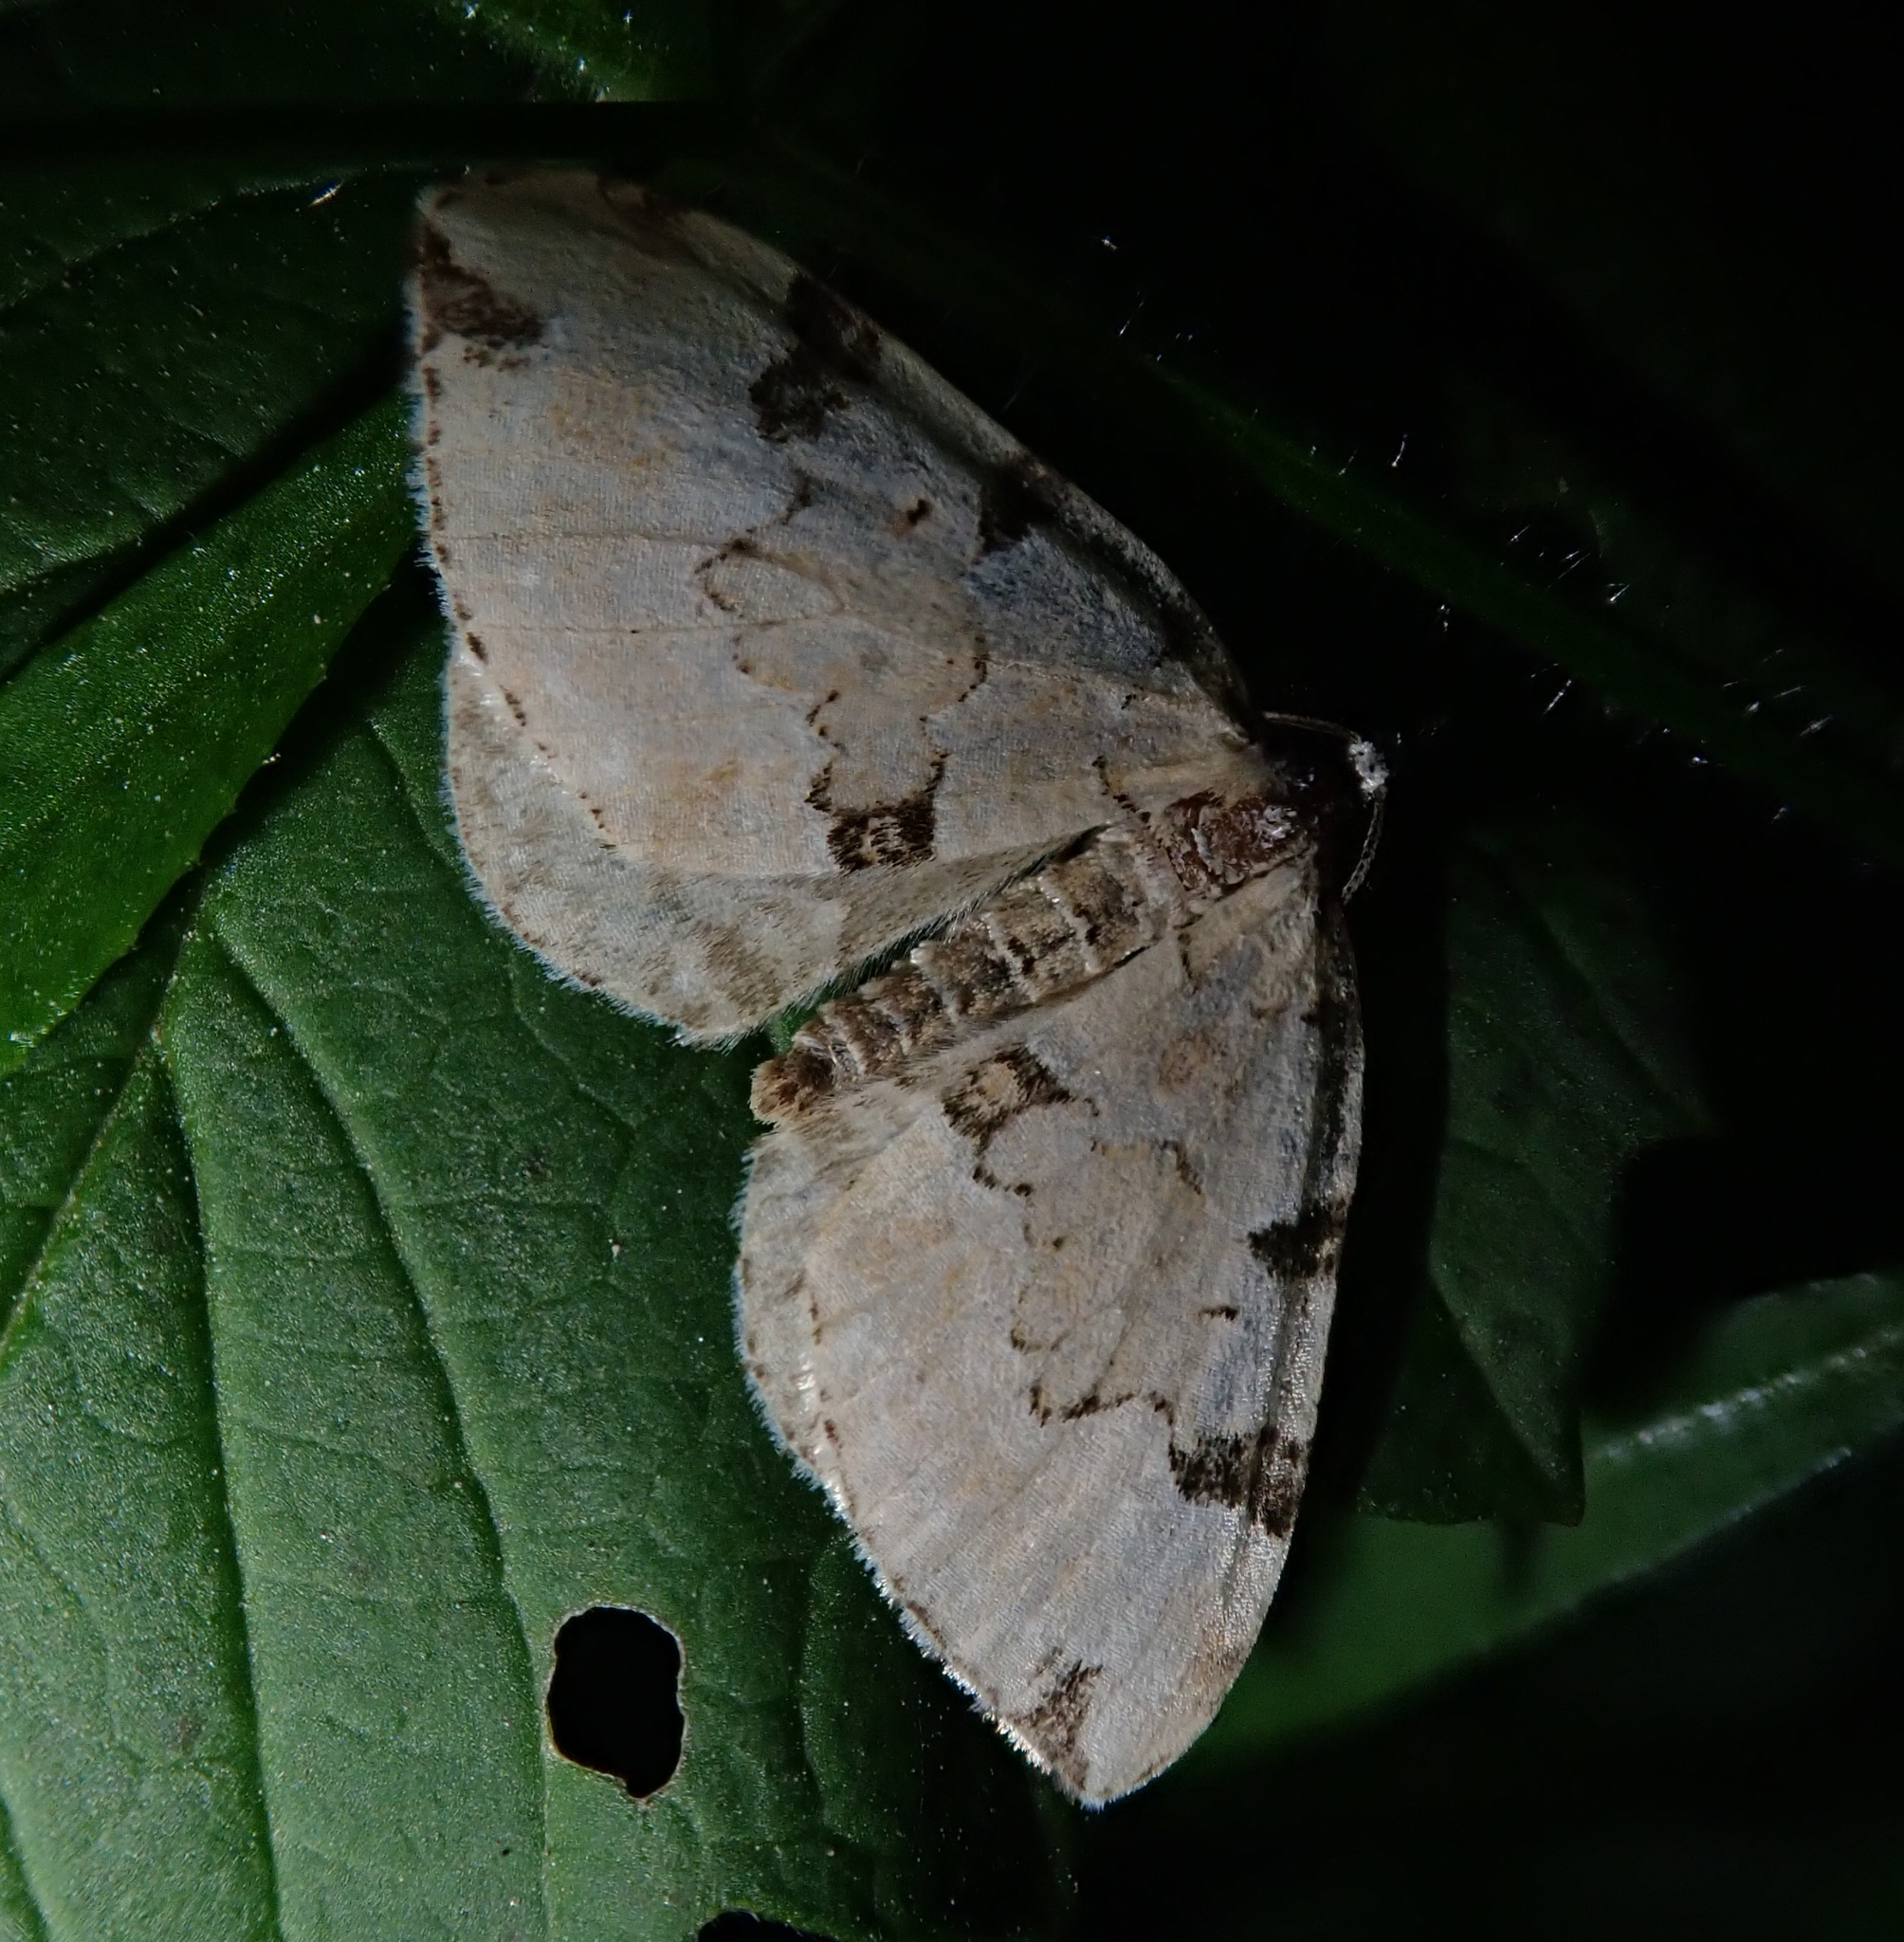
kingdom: Animalia
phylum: Arthropoda
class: Insecta
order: Lepidoptera
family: Geometridae
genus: Colostygia
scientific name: Colostygia pectinataria
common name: Green carpet
